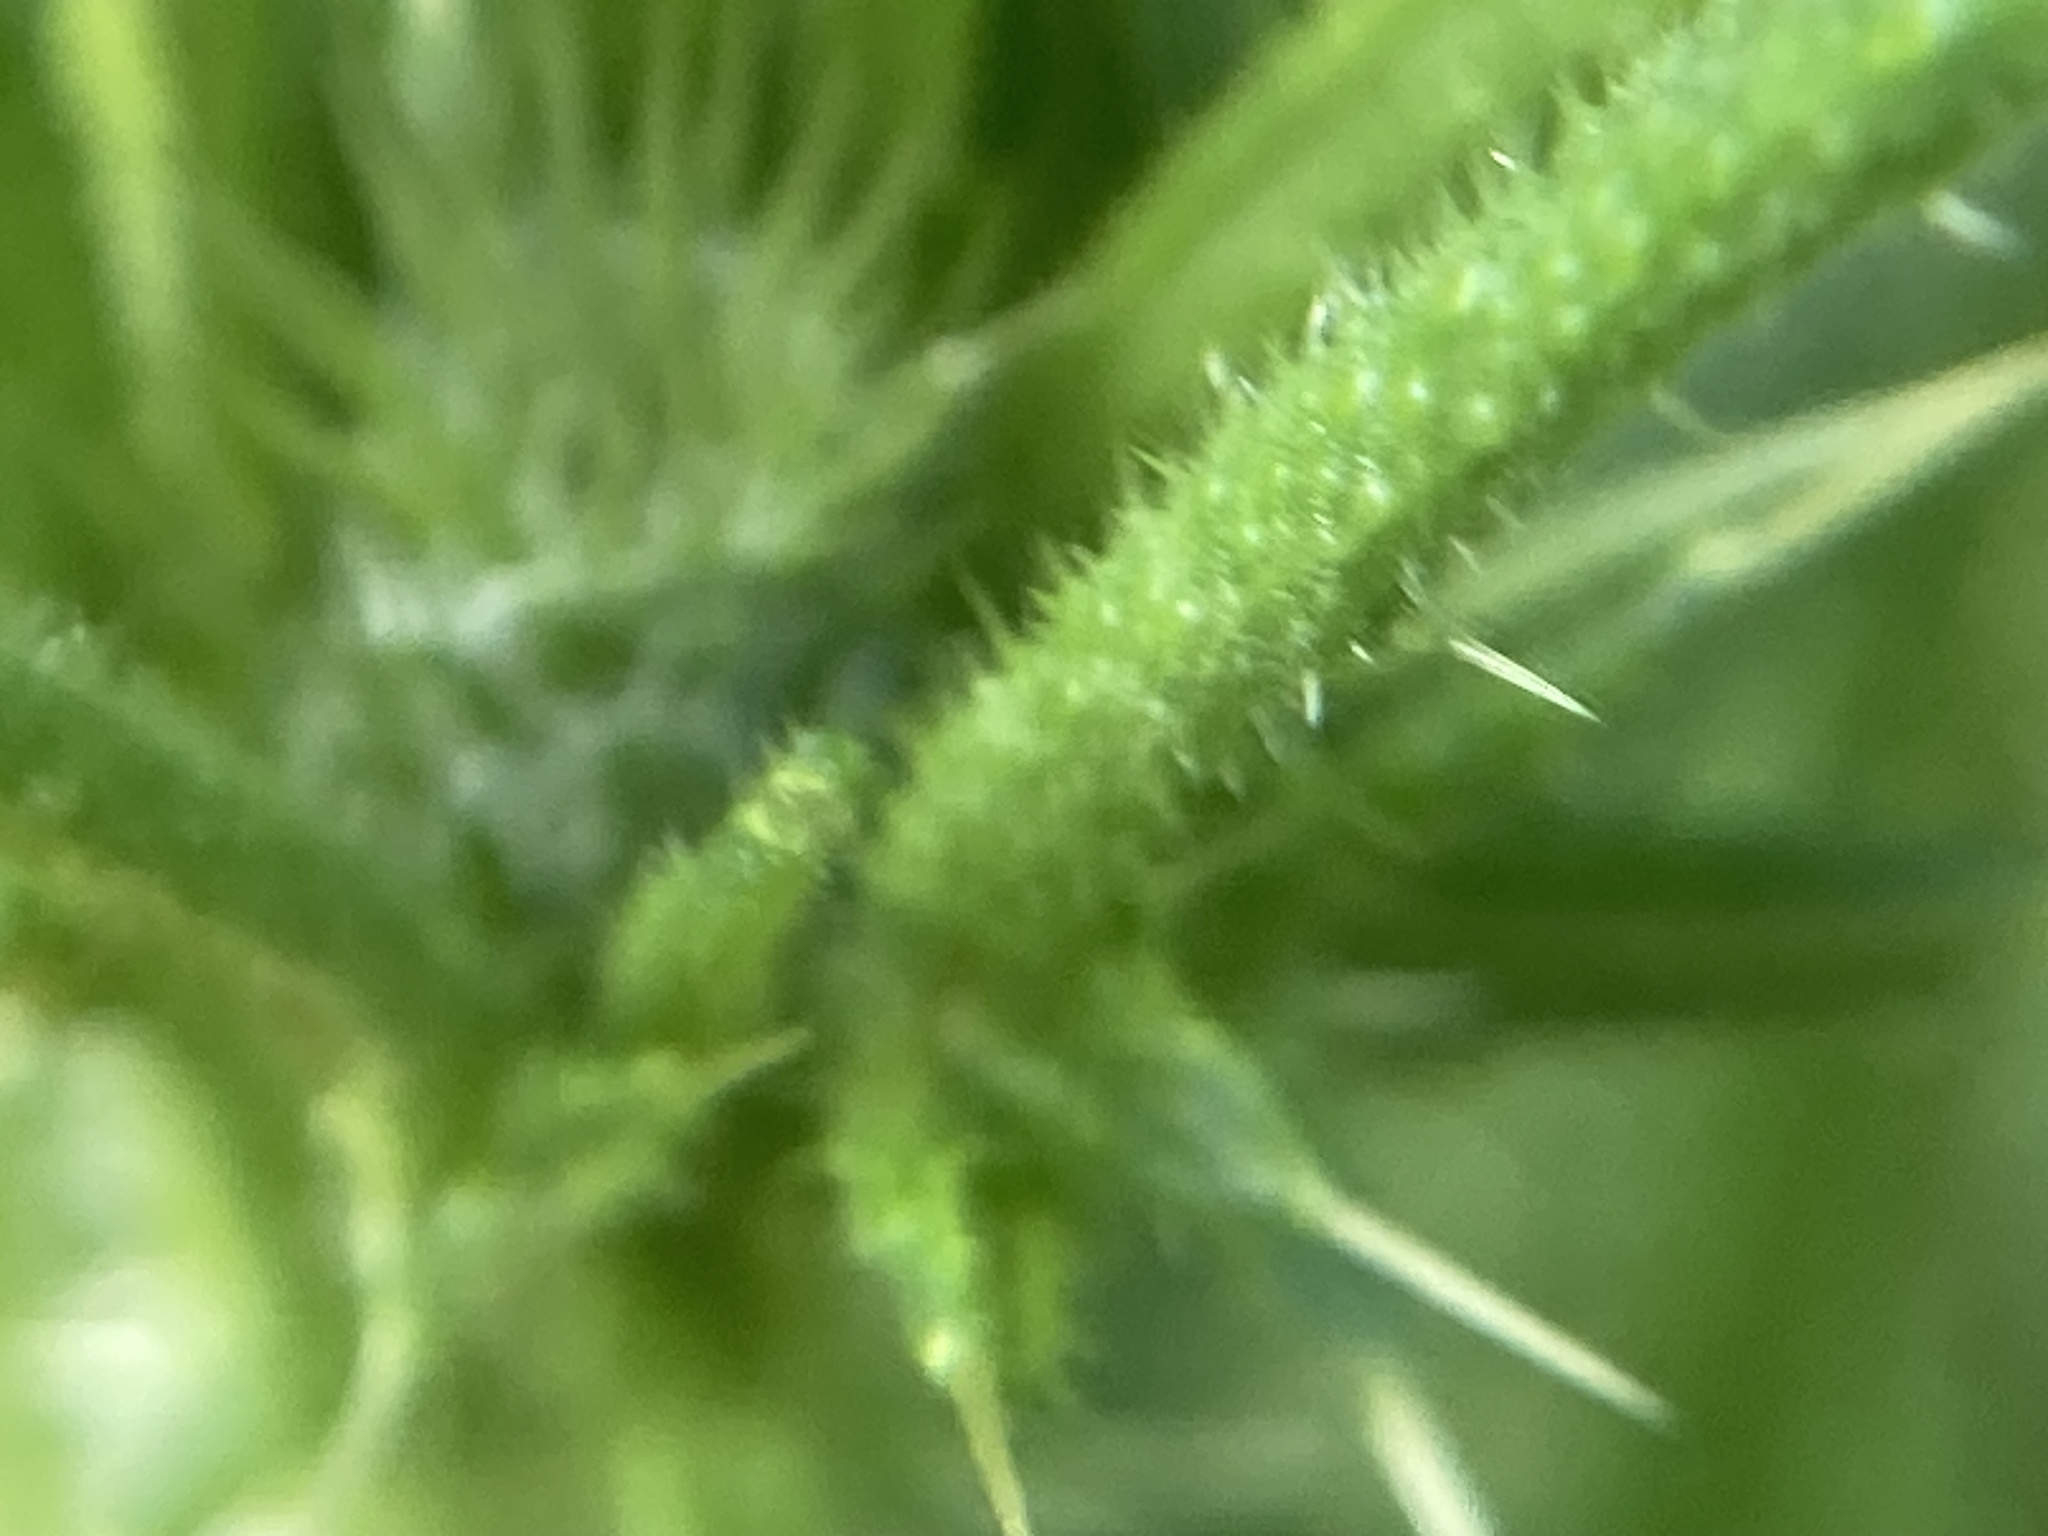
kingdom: Plantae
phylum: Tracheophyta
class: Magnoliopsida
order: Asterales
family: Asteraceae
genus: Cirsium
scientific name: Cirsium vulgare
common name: Bull thistle
